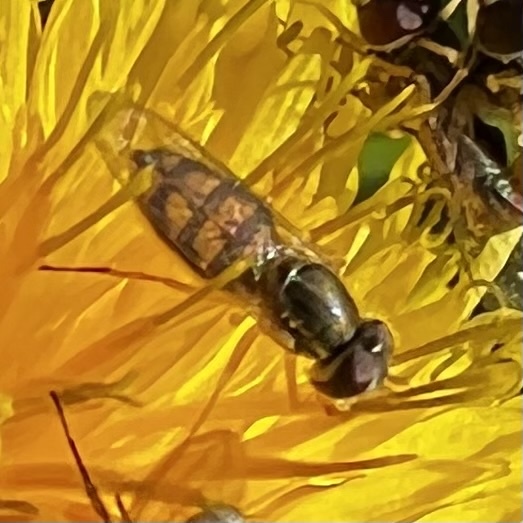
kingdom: Animalia
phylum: Arthropoda
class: Insecta
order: Diptera
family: Syrphidae
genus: Toxomerus
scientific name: Toxomerus marginatus
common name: Syrphid fly
